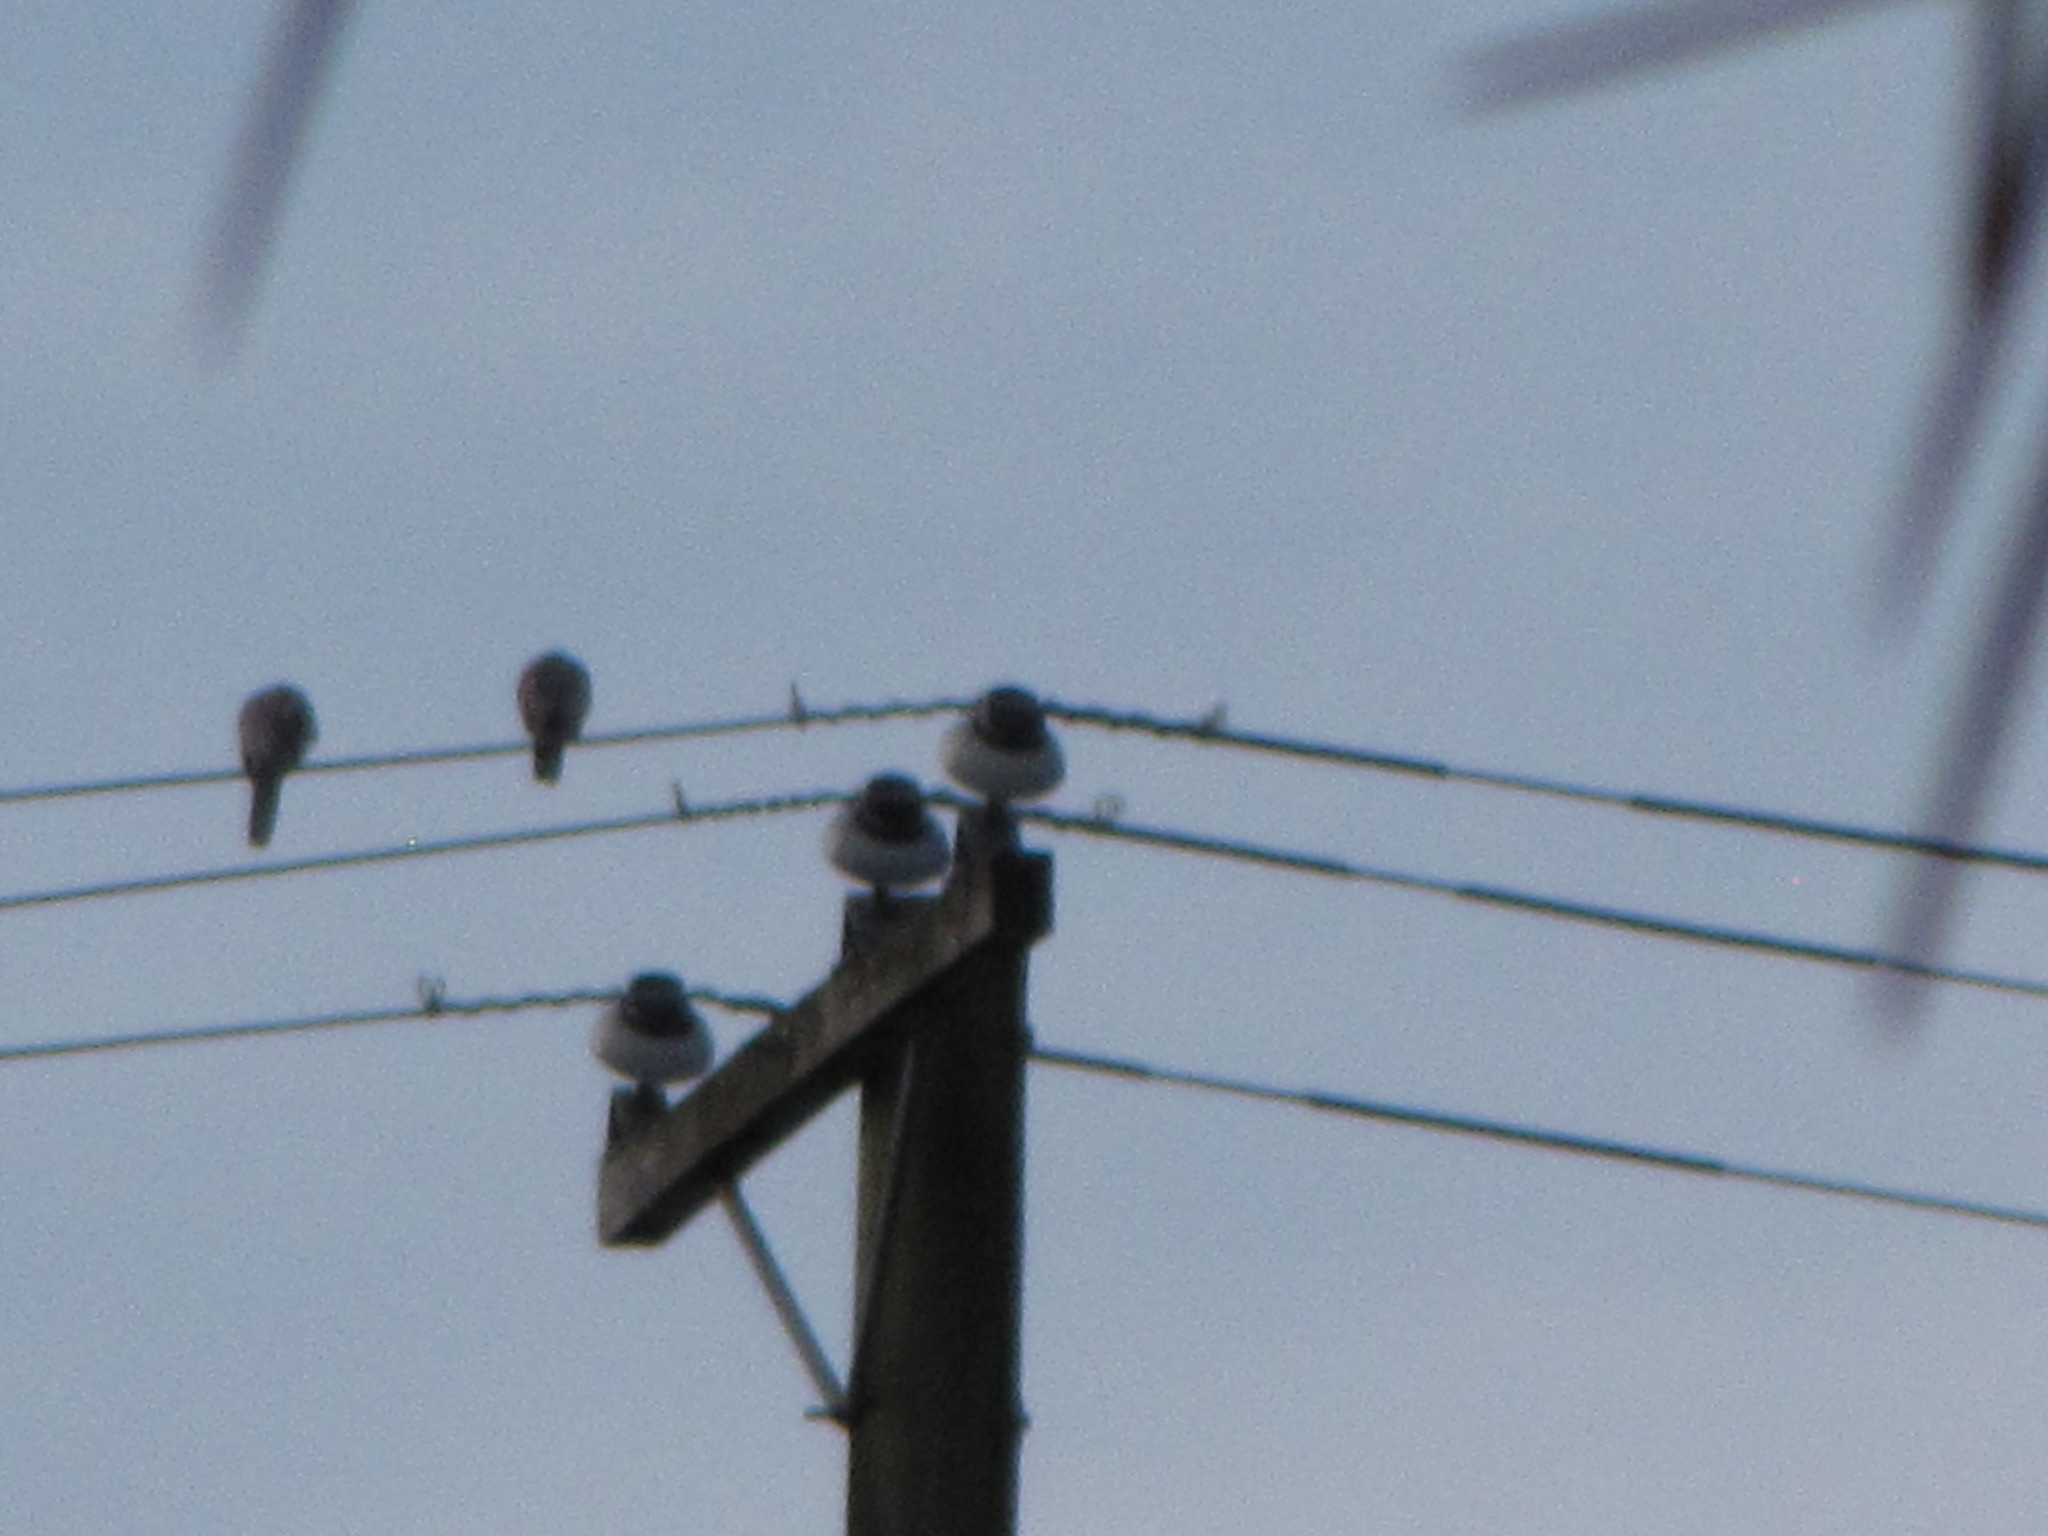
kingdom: Animalia
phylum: Chordata
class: Aves
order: Columbiformes
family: Columbidae
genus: Streptopelia
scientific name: Streptopelia decaocto
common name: Eurasian collared dove
